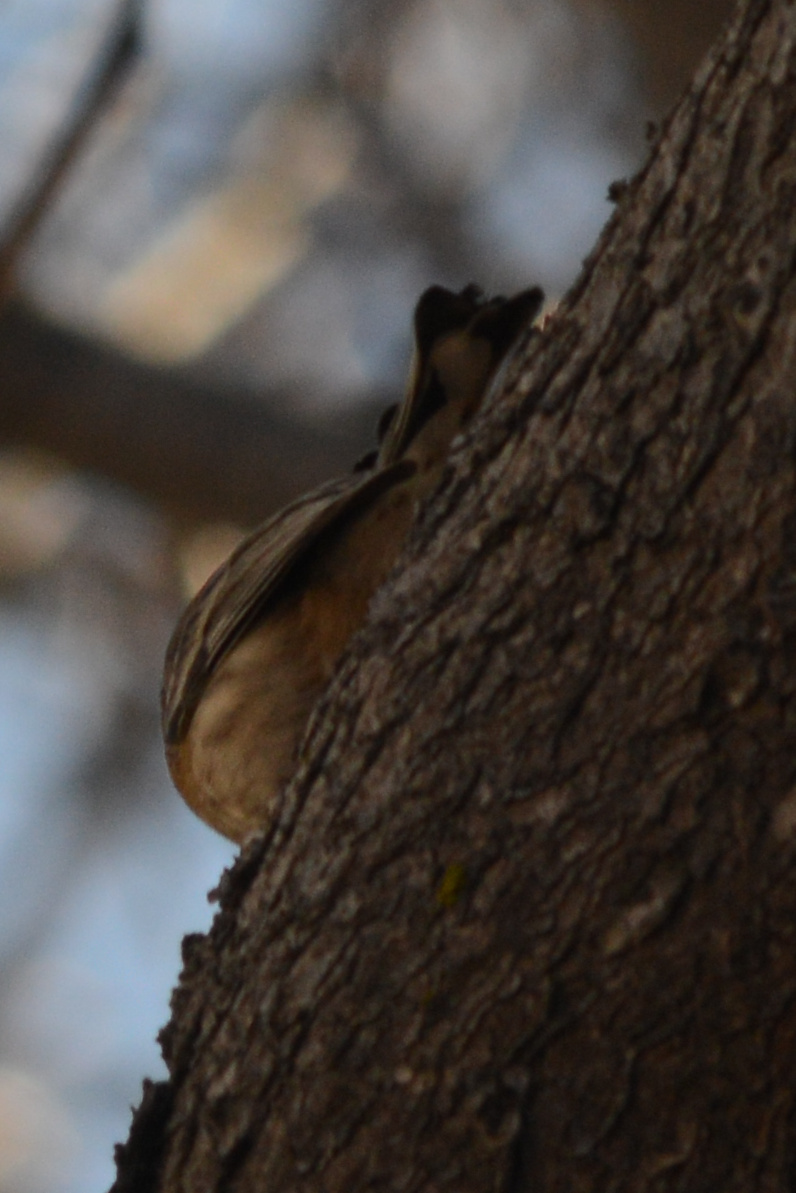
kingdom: Animalia
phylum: Chordata
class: Aves
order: Passeriformes
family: Parulidae
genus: Setophaga
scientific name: Setophaga coronata
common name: Myrtle warbler
